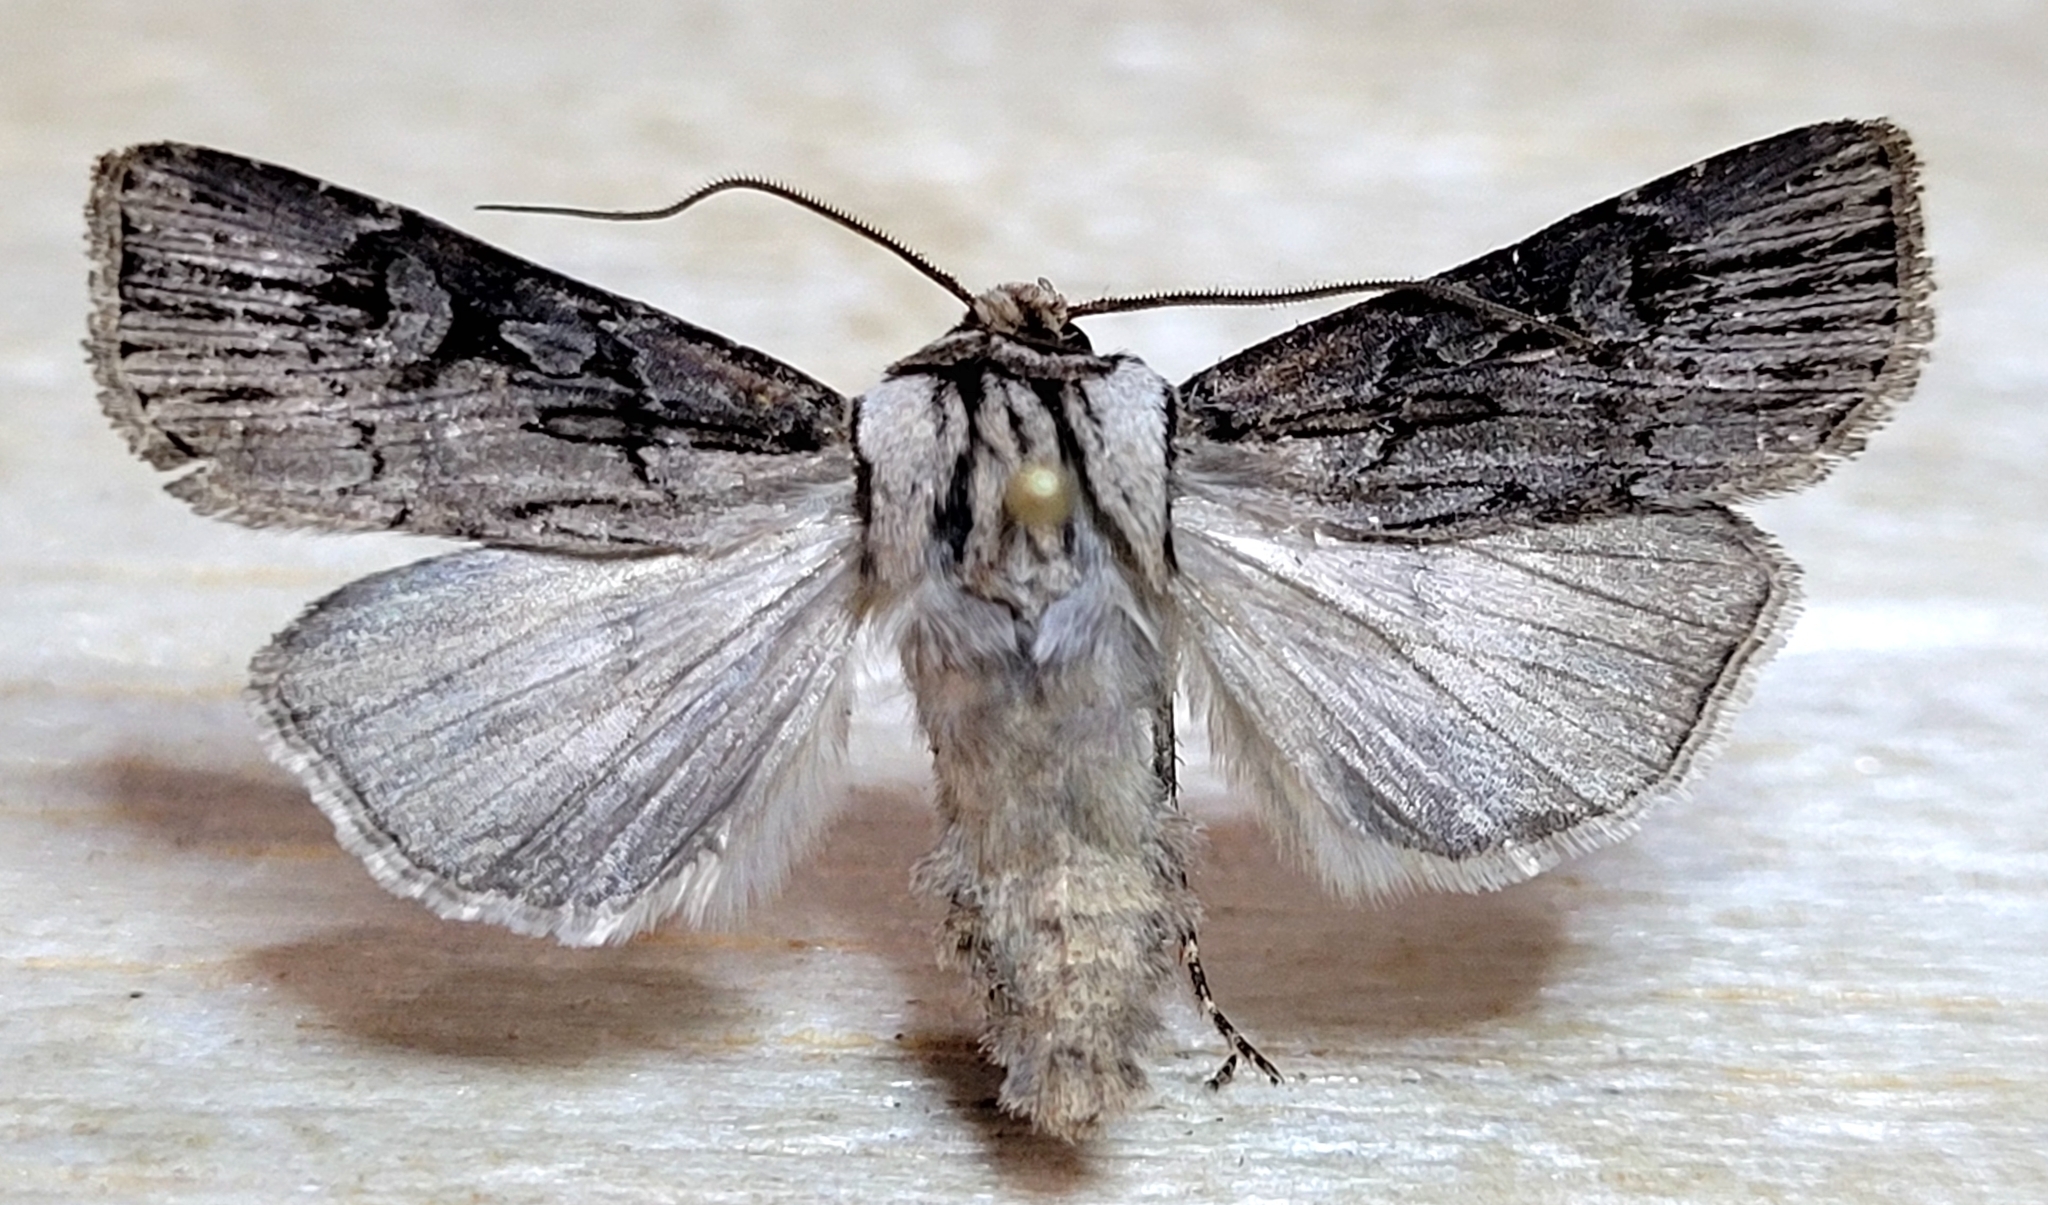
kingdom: Animalia
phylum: Arthropoda
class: Insecta
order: Lepidoptera
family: Noctuidae
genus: Agrotis
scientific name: Agrotis obliqua
